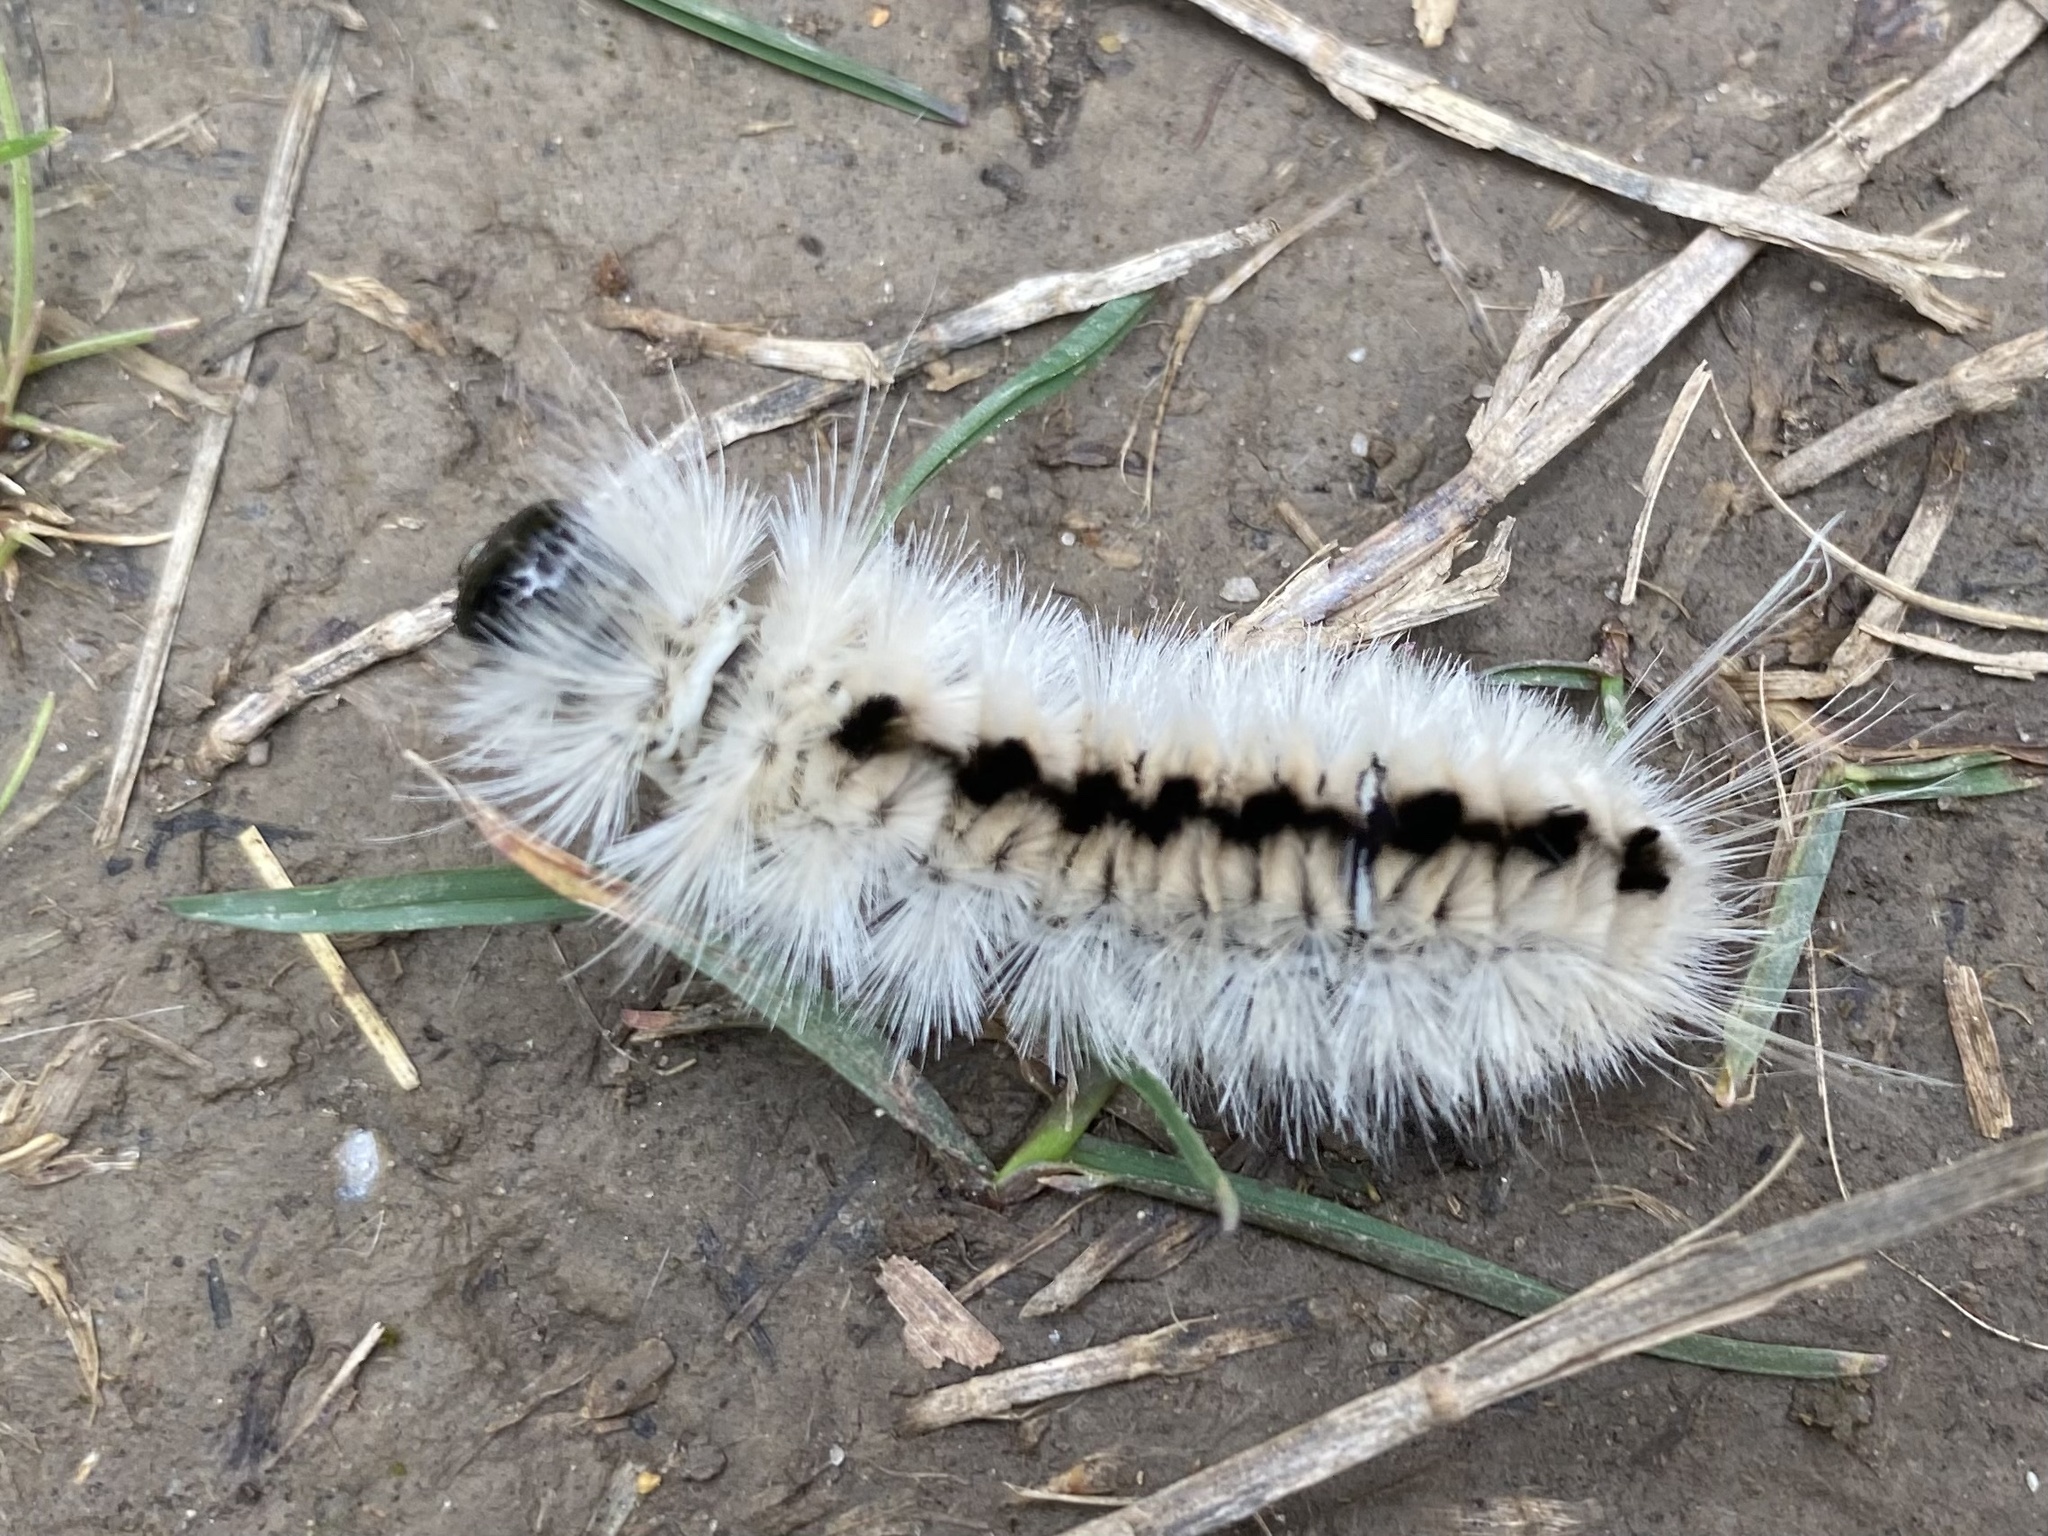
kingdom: Animalia
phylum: Arthropoda
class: Insecta
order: Lepidoptera
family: Erebidae
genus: Lophocampa
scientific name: Lophocampa caryae
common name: Hickory tussock moth
